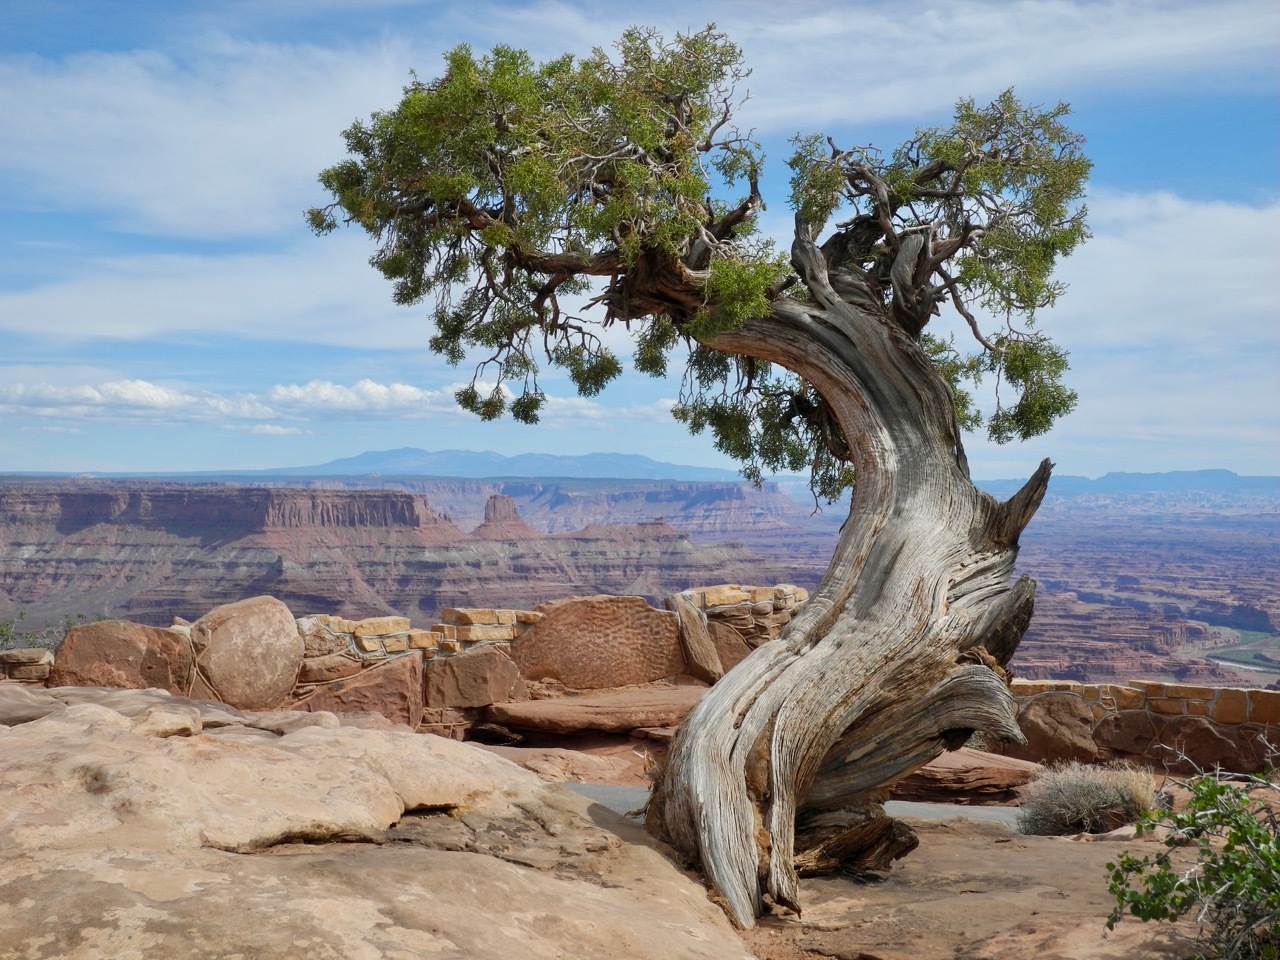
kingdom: Plantae
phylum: Tracheophyta
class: Pinopsida
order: Pinales
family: Cupressaceae
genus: Juniperus
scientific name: Juniperus osteosperma
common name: Utah juniper
